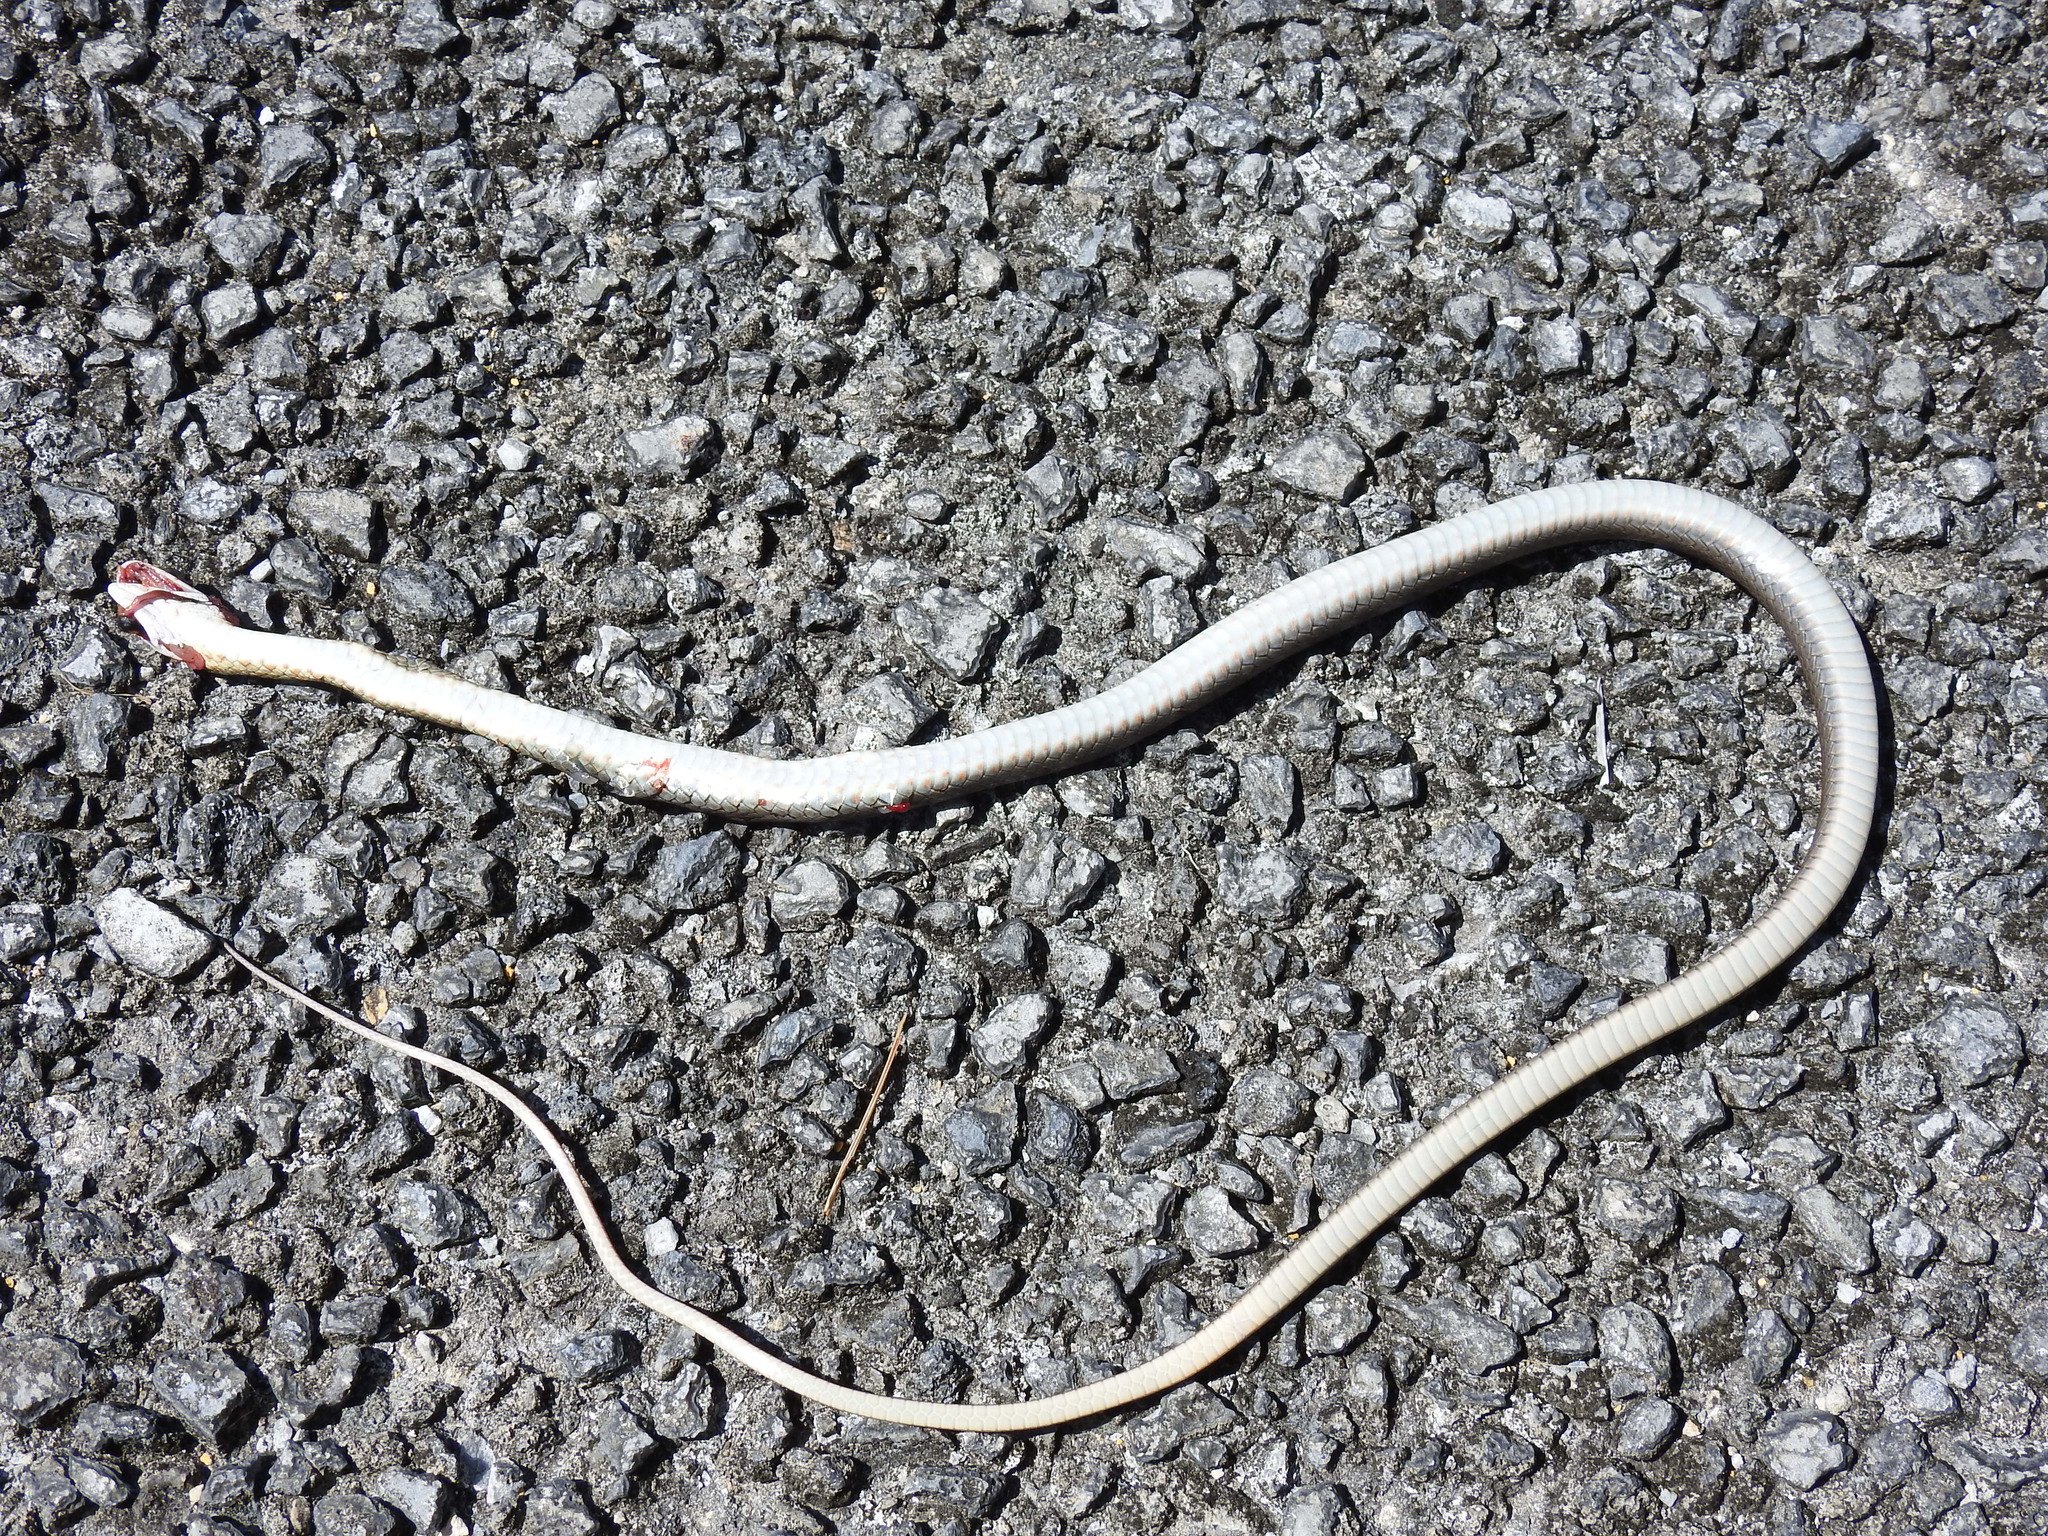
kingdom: Animalia
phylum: Chordata
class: Squamata
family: Colubridae
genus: Coluber
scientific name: Coluber constrictor
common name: Eastern racer
